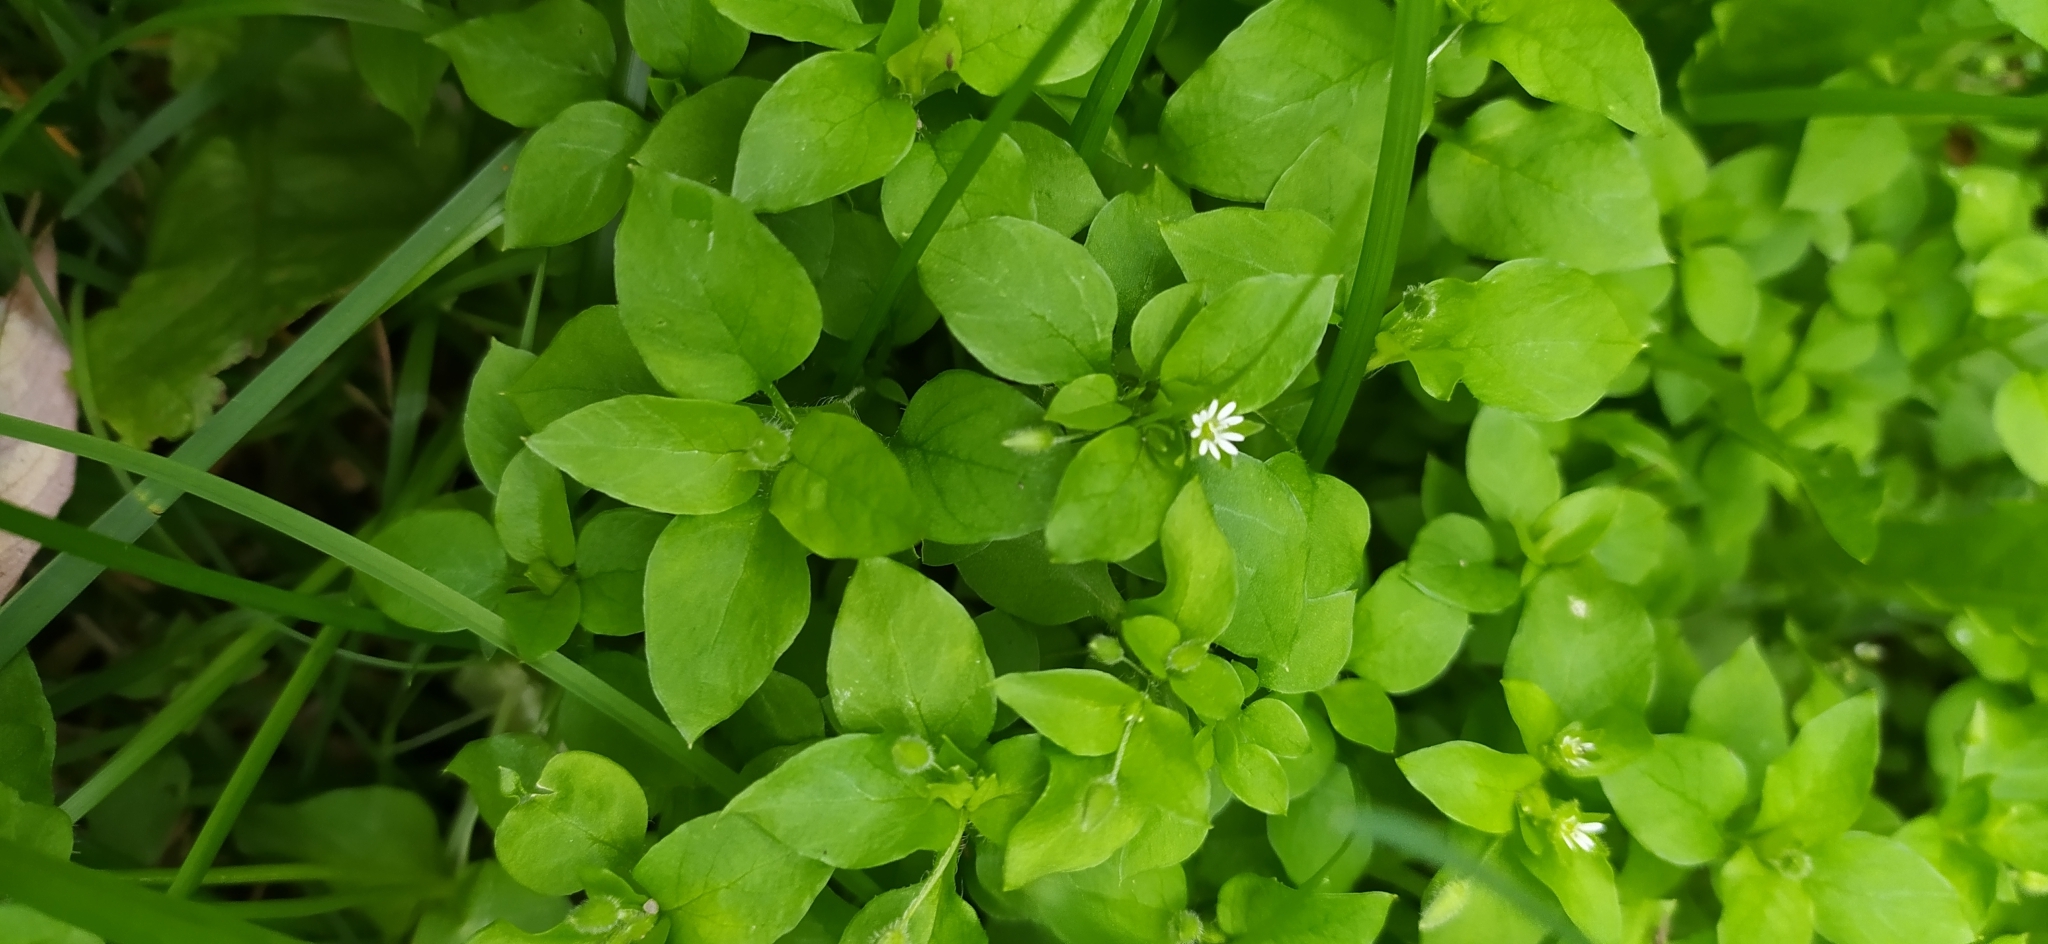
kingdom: Plantae
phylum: Tracheophyta
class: Magnoliopsida
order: Caryophyllales
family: Caryophyllaceae
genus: Stellaria
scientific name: Stellaria media
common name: Common chickweed
